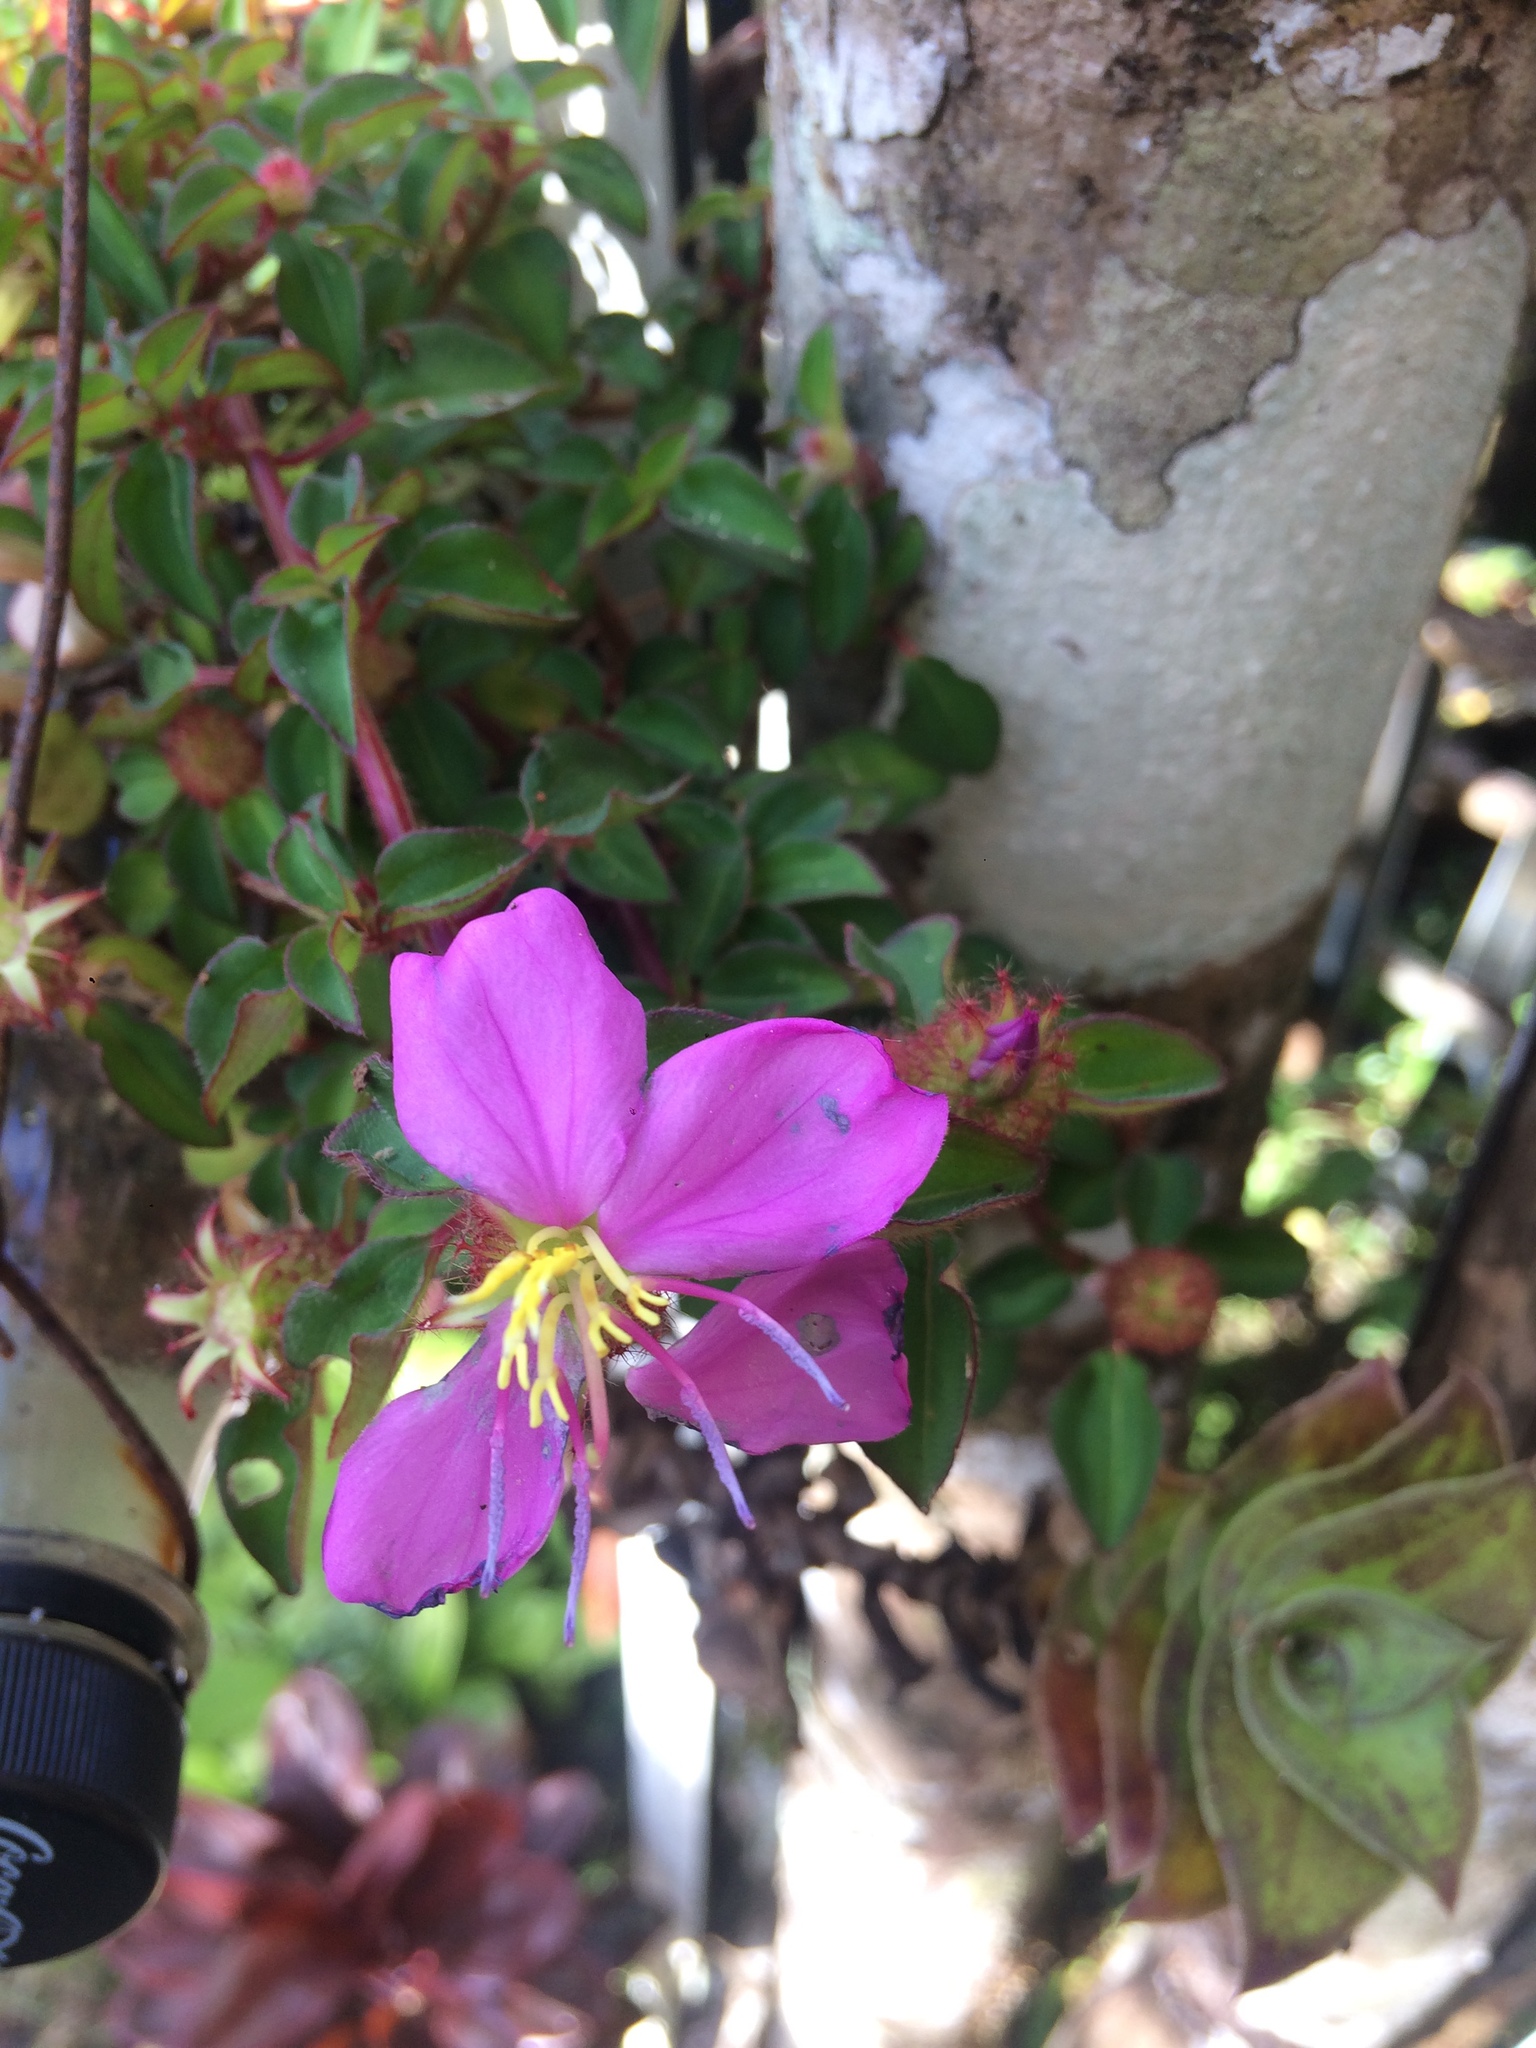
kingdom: Plantae
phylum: Tracheophyta
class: Magnoliopsida
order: Myrtales
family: Melastomataceae
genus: Heterotis
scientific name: Heterotis rotundifolia
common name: Pinklady
